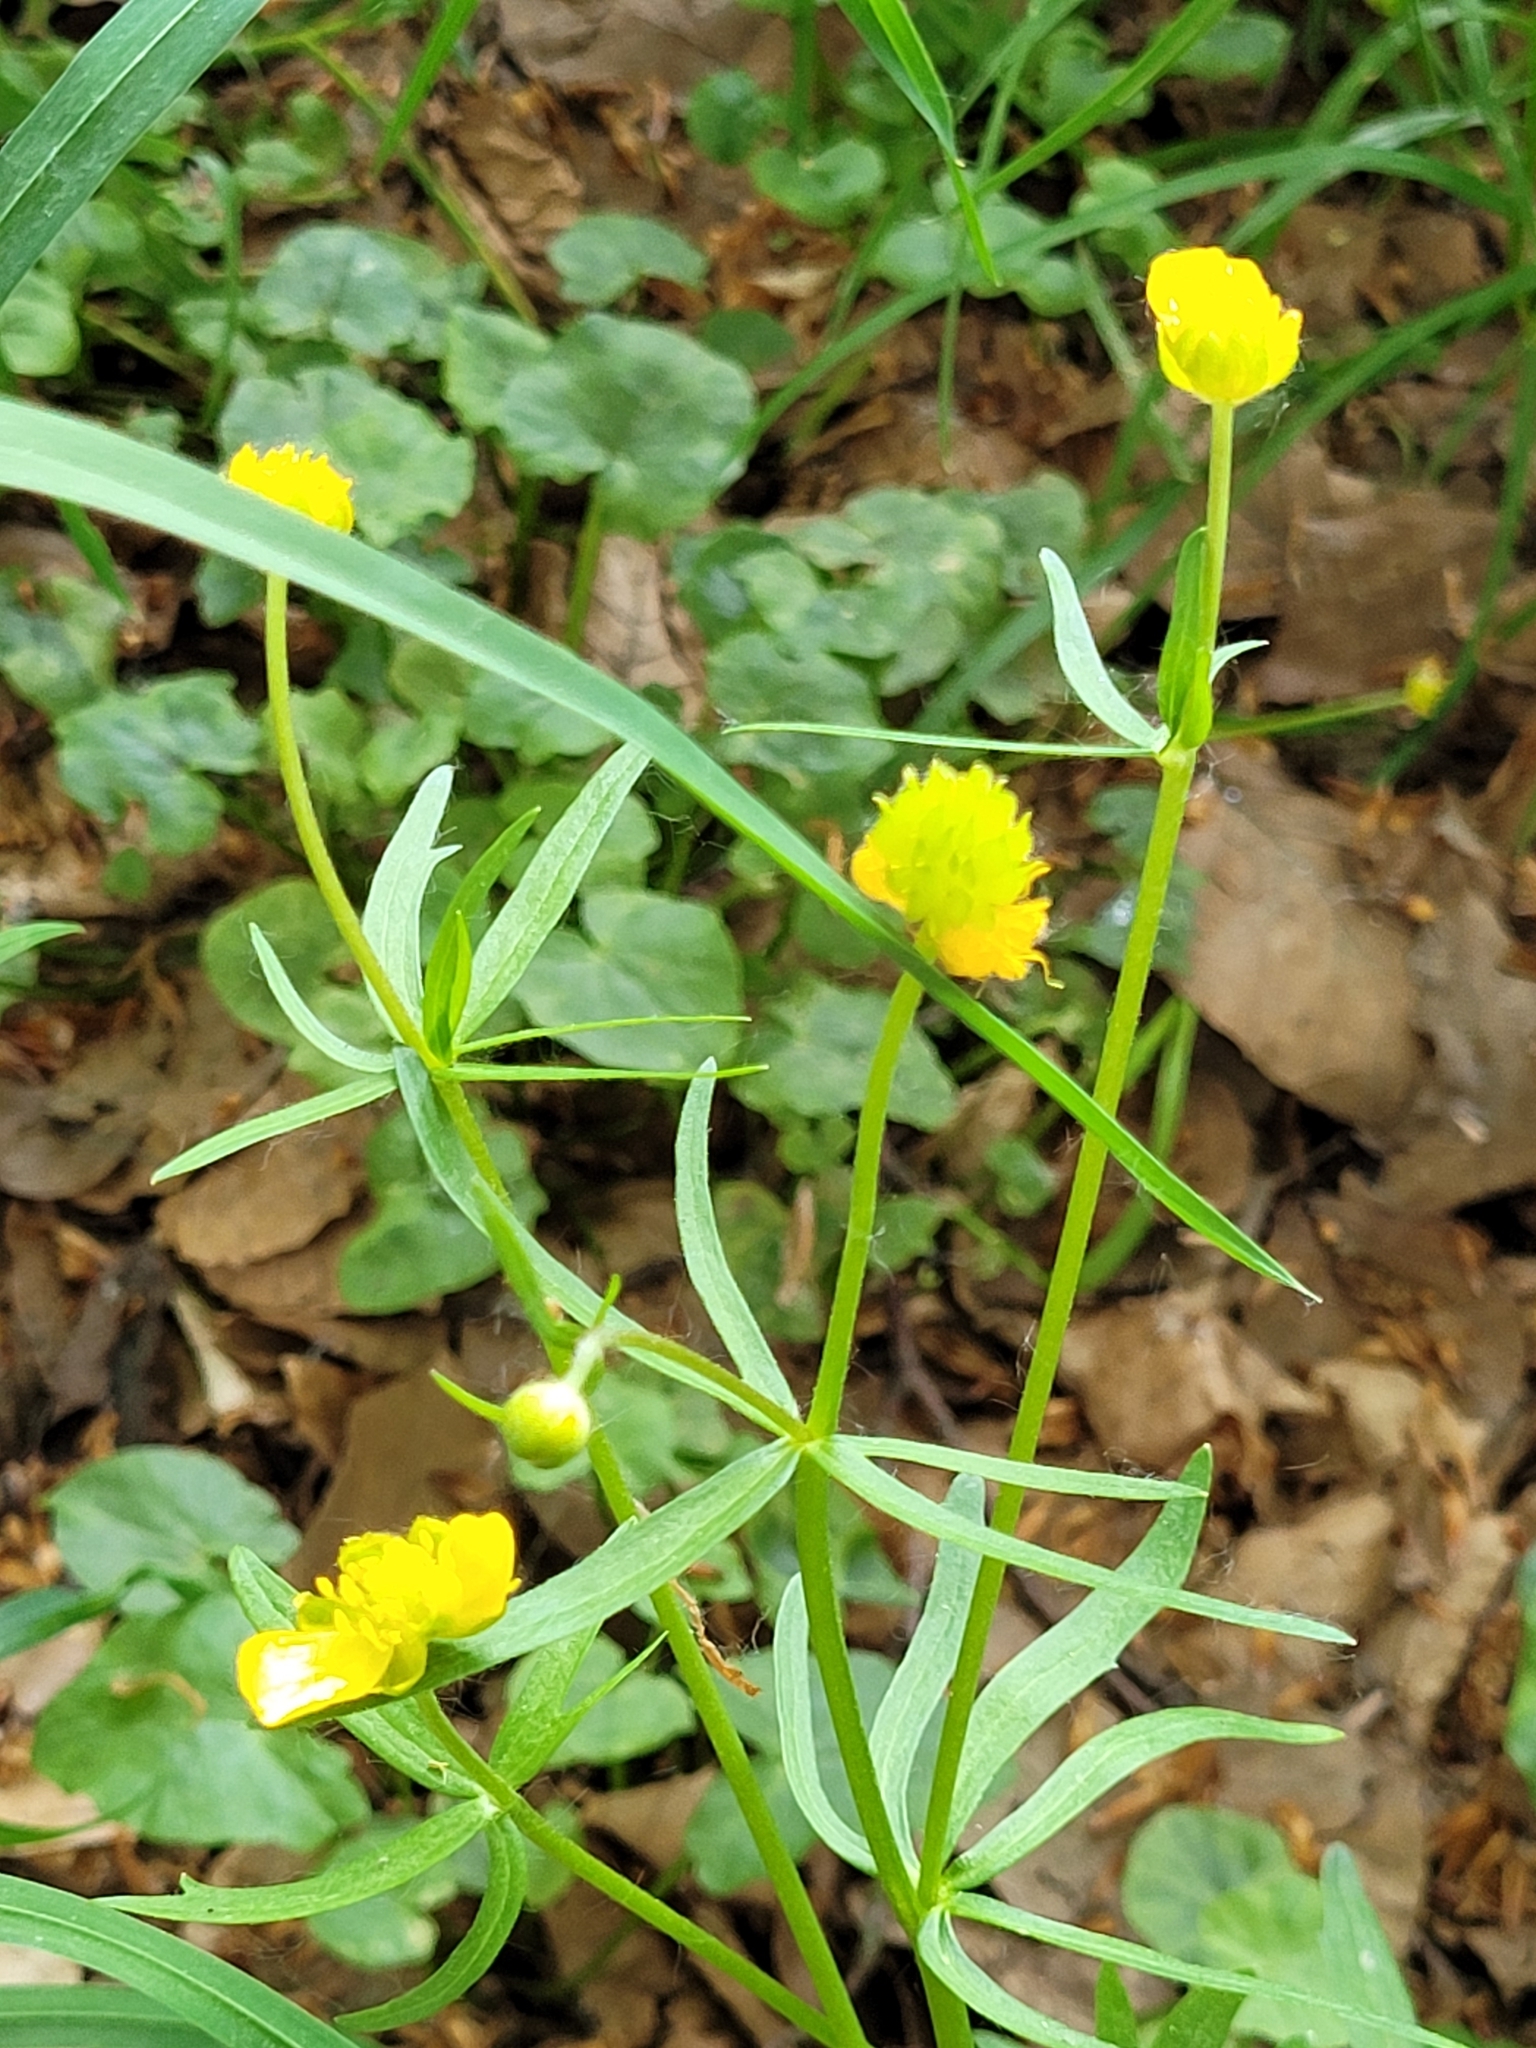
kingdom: Plantae
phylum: Tracheophyta
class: Magnoliopsida
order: Ranunculales
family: Ranunculaceae
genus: Ranunculus
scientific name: Ranunculus auricomus
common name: Goldilocks buttercup
